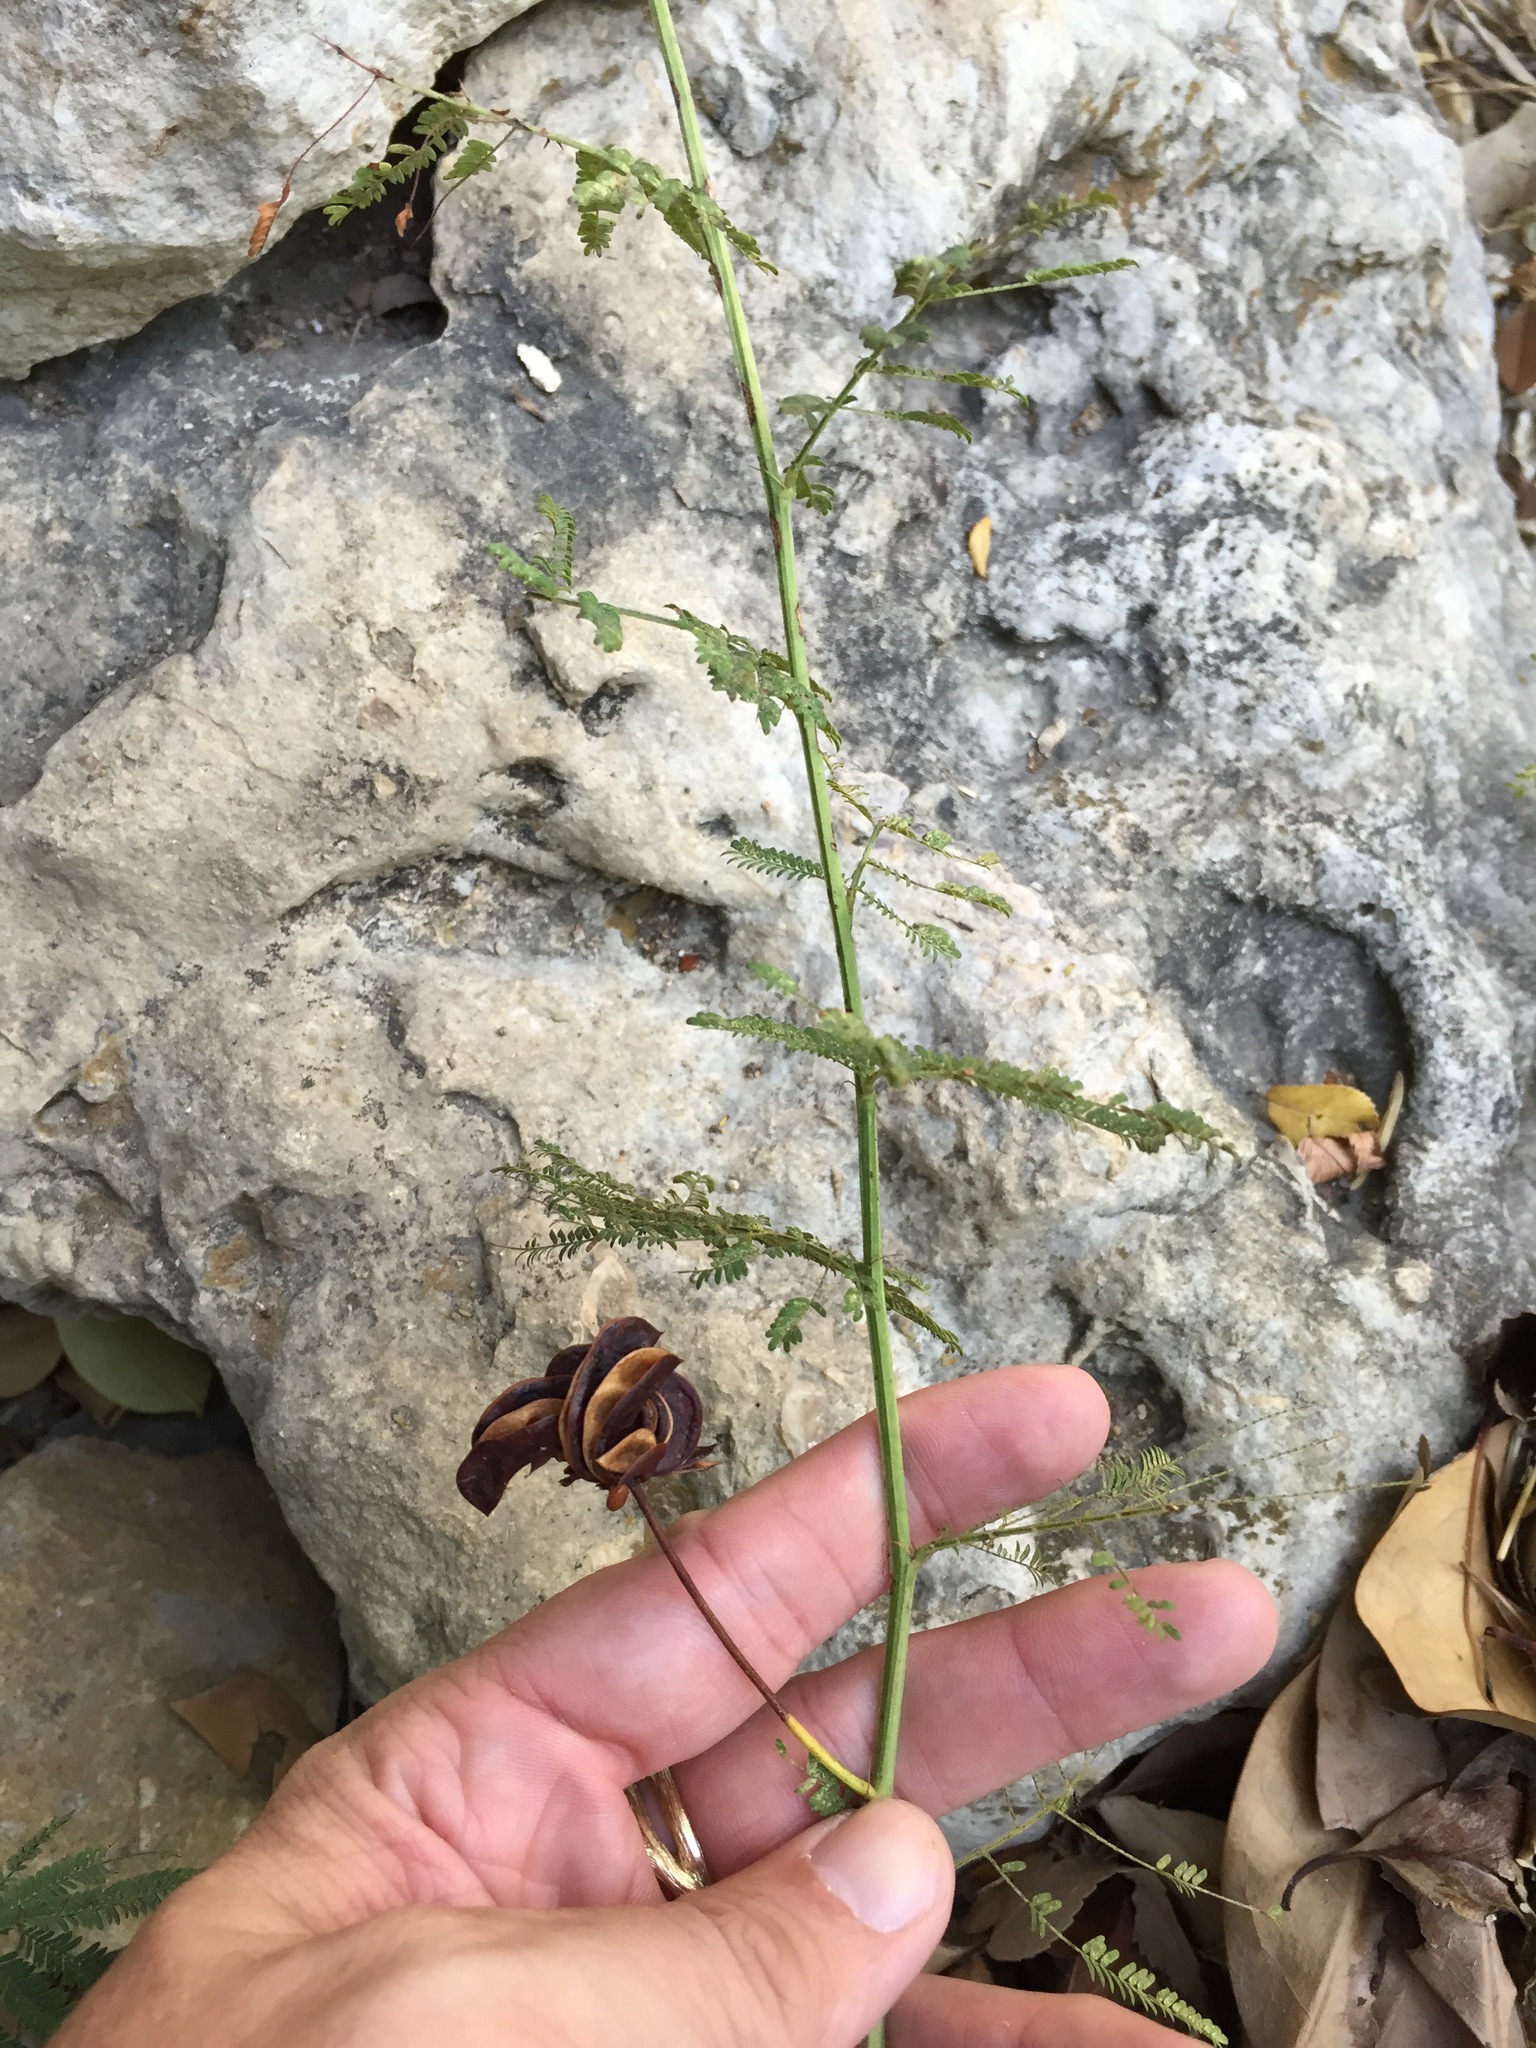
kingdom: Plantae
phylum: Tracheophyta
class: Magnoliopsida
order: Fabales
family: Fabaceae
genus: Desmanthus
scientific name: Desmanthus illinoensis
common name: Illinois bundle-flower
